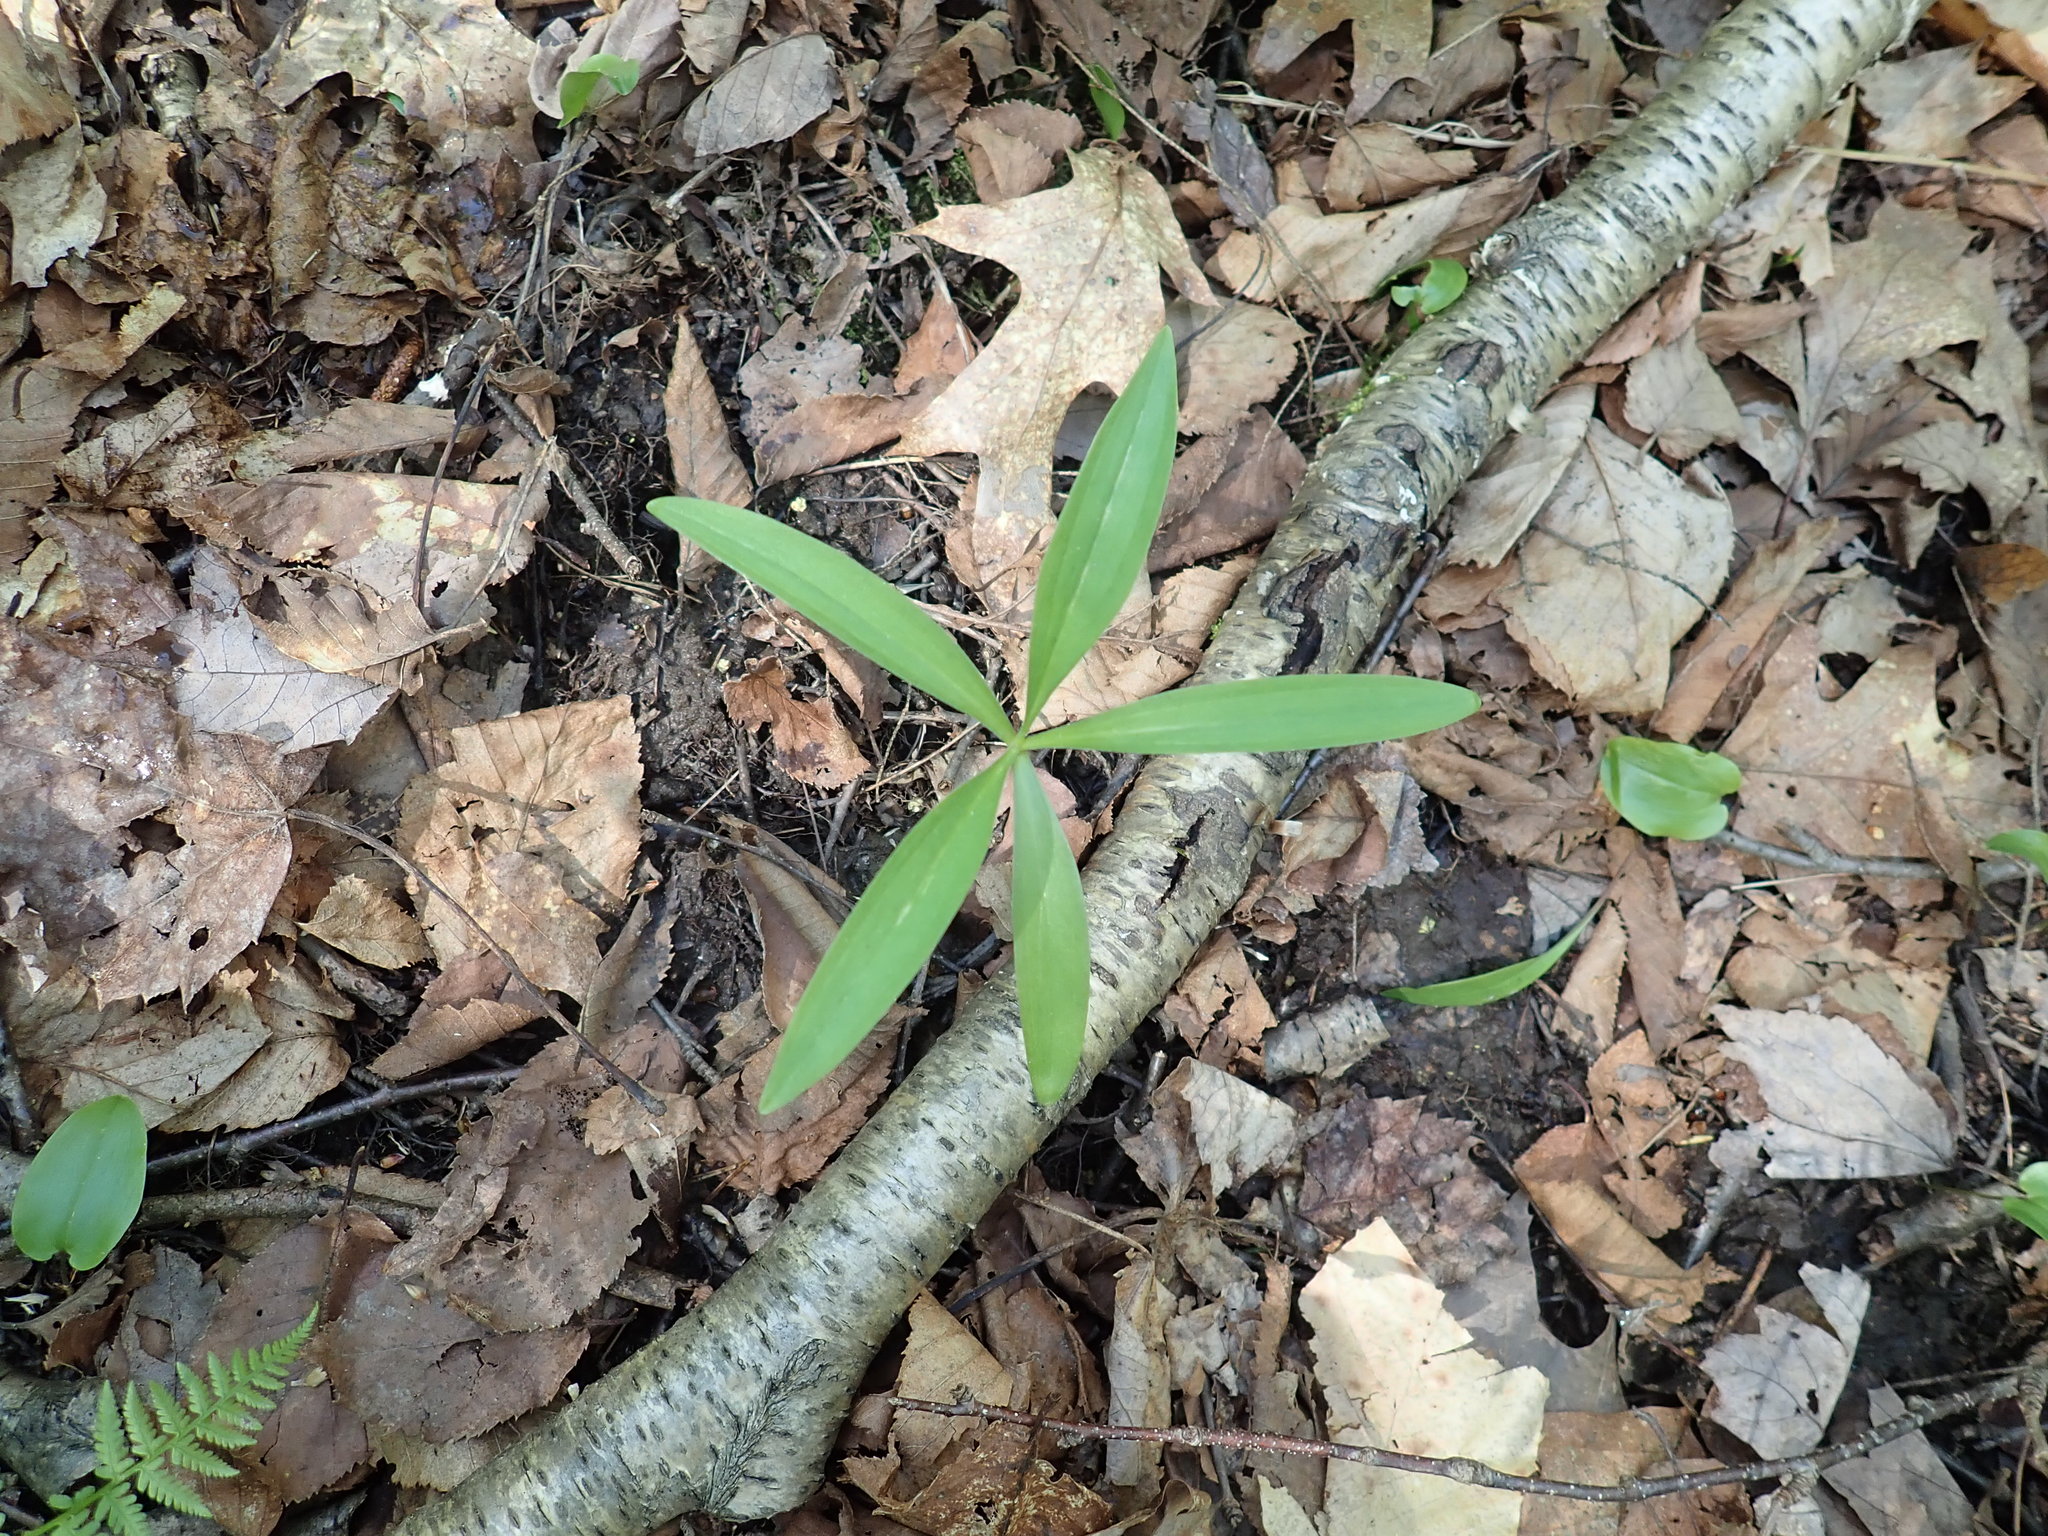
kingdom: Plantae
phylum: Tracheophyta
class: Liliopsida
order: Liliales
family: Liliaceae
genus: Lilium
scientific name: Lilium
